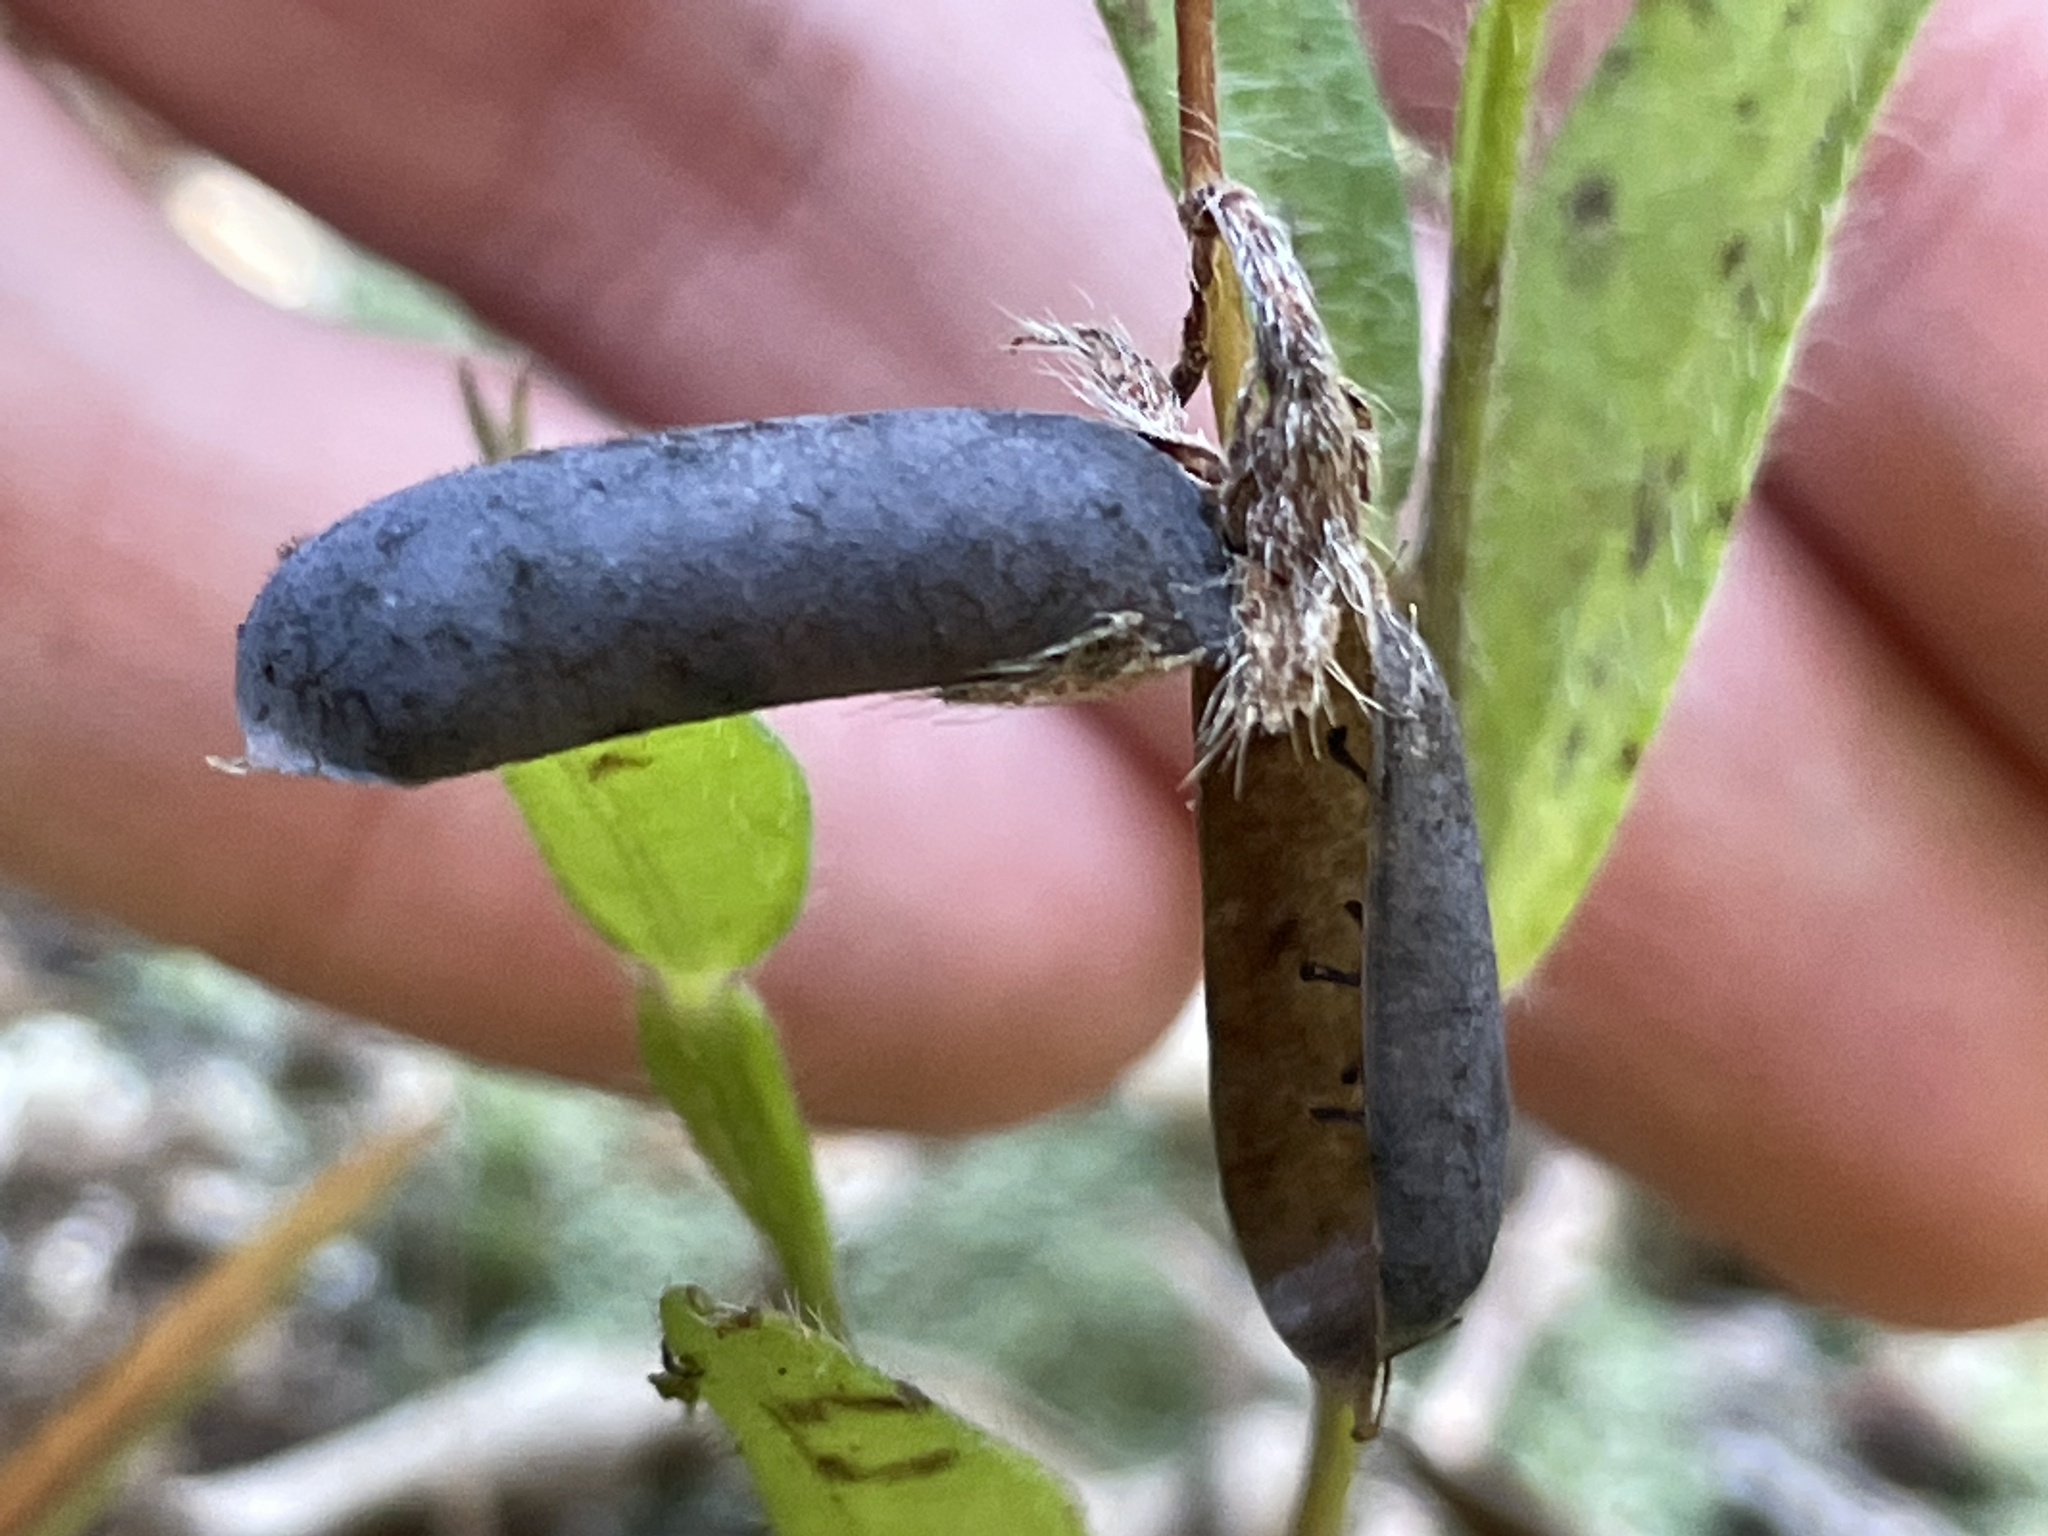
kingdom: Plantae
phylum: Tracheophyta
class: Magnoliopsida
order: Fabales
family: Fabaceae
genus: Crotalaria
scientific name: Crotalaria sagittalis
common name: Arrowhead rattlebox
